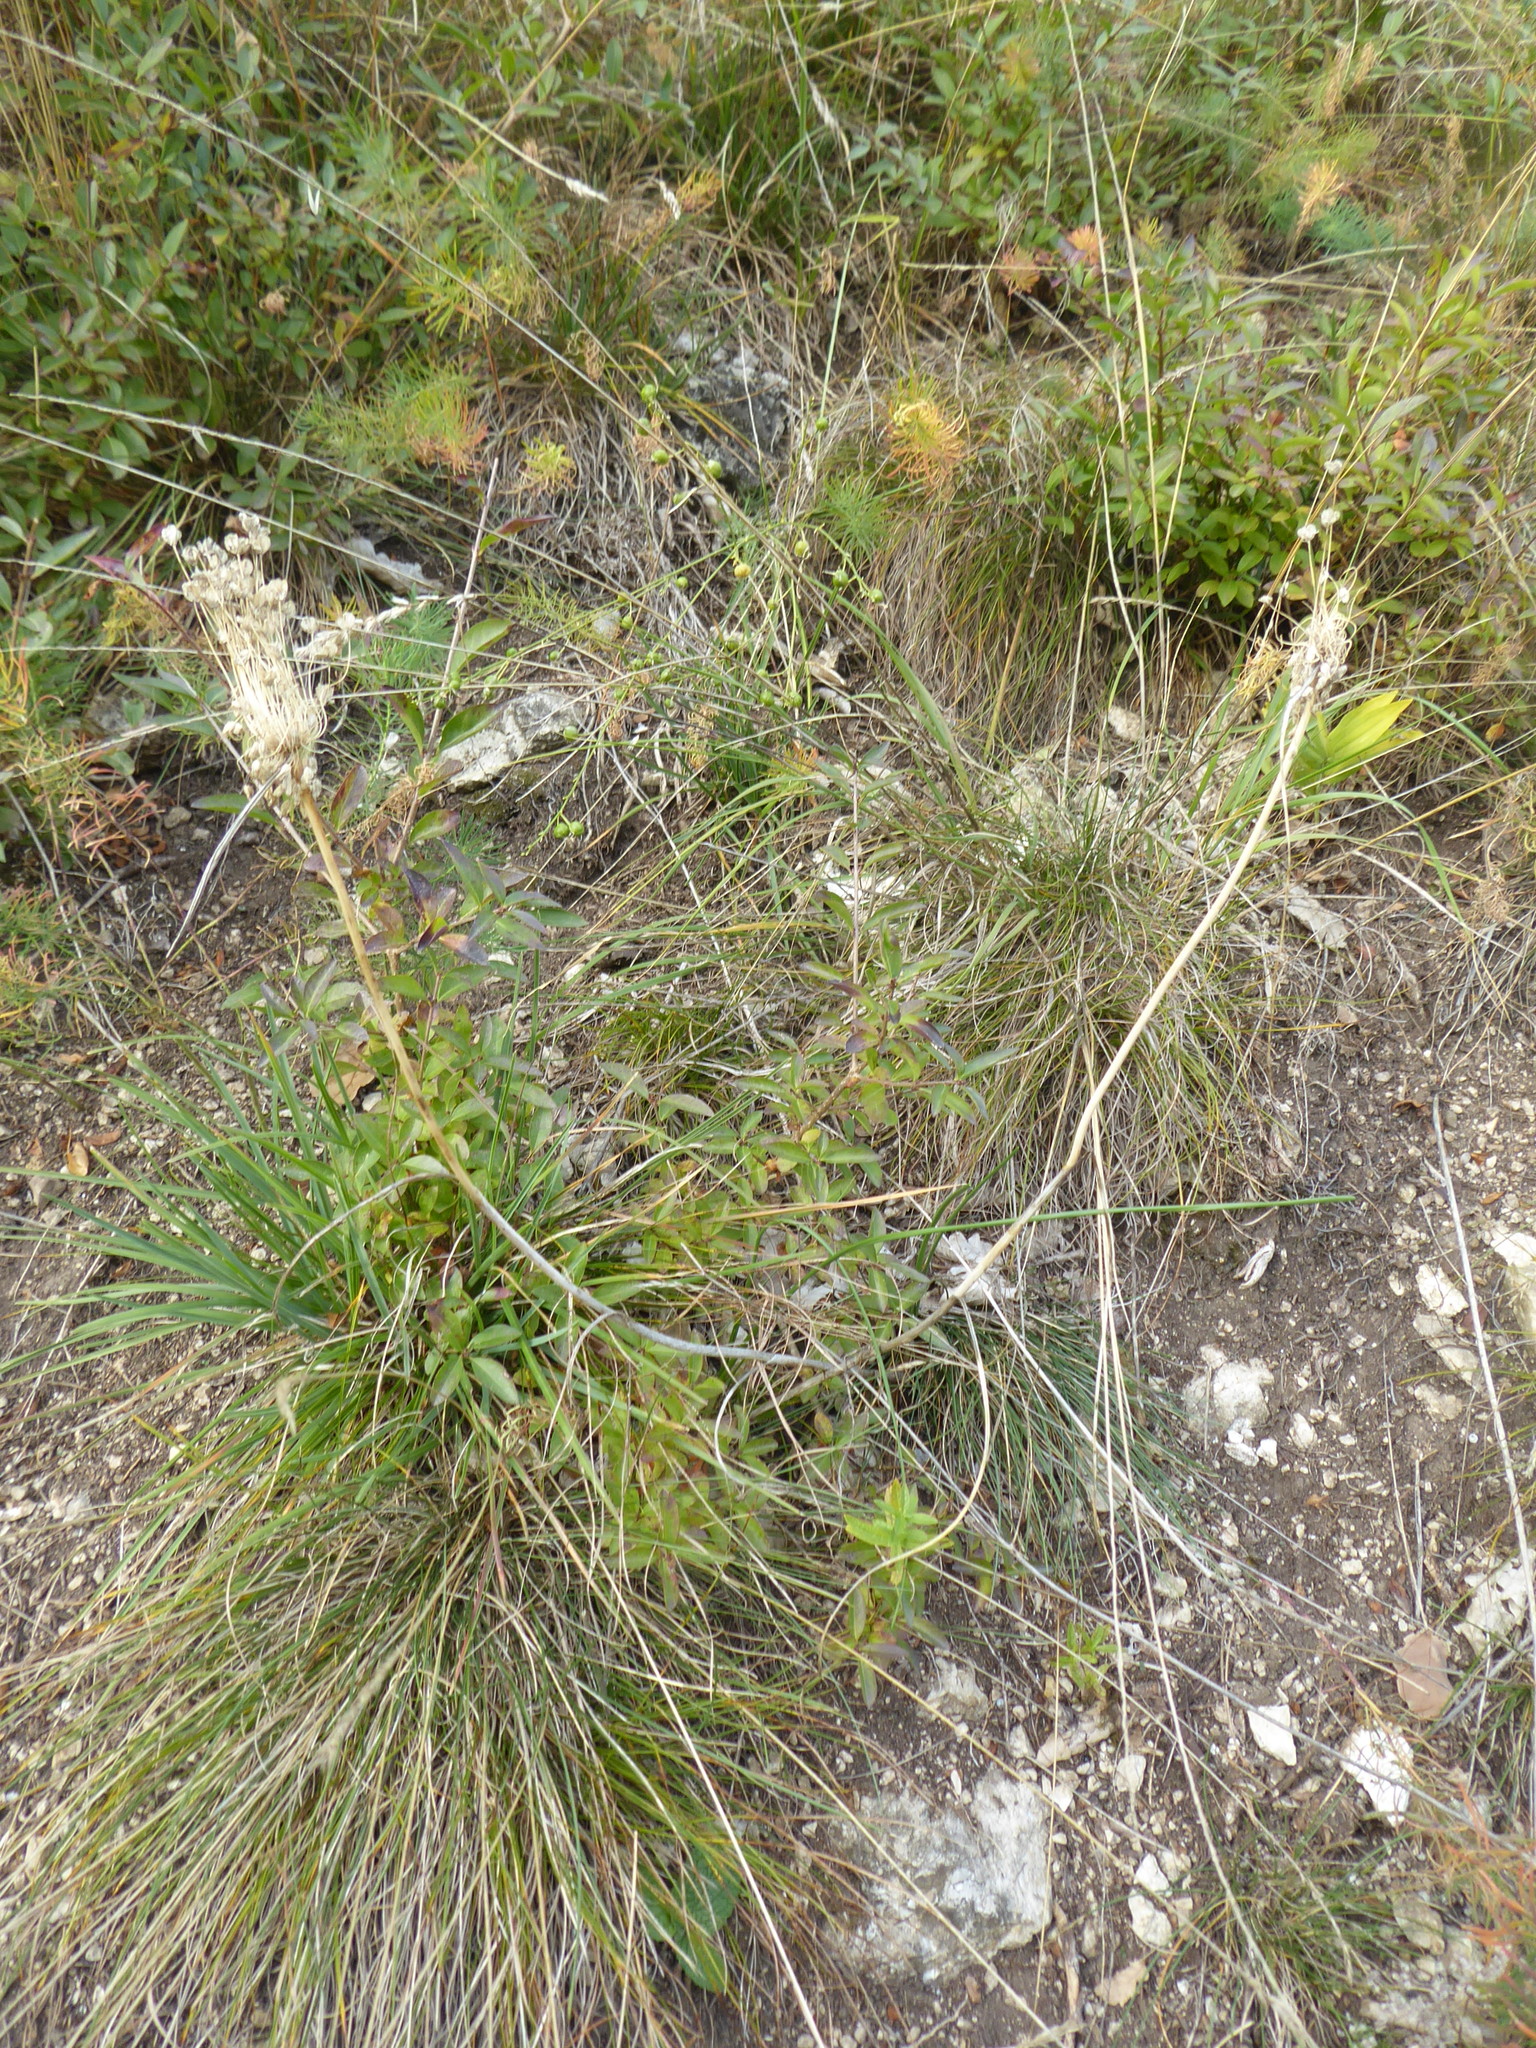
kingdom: Plantae
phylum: Tracheophyta
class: Liliopsida
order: Asparagales
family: Amaryllidaceae
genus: Allium
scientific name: Allium flavum
